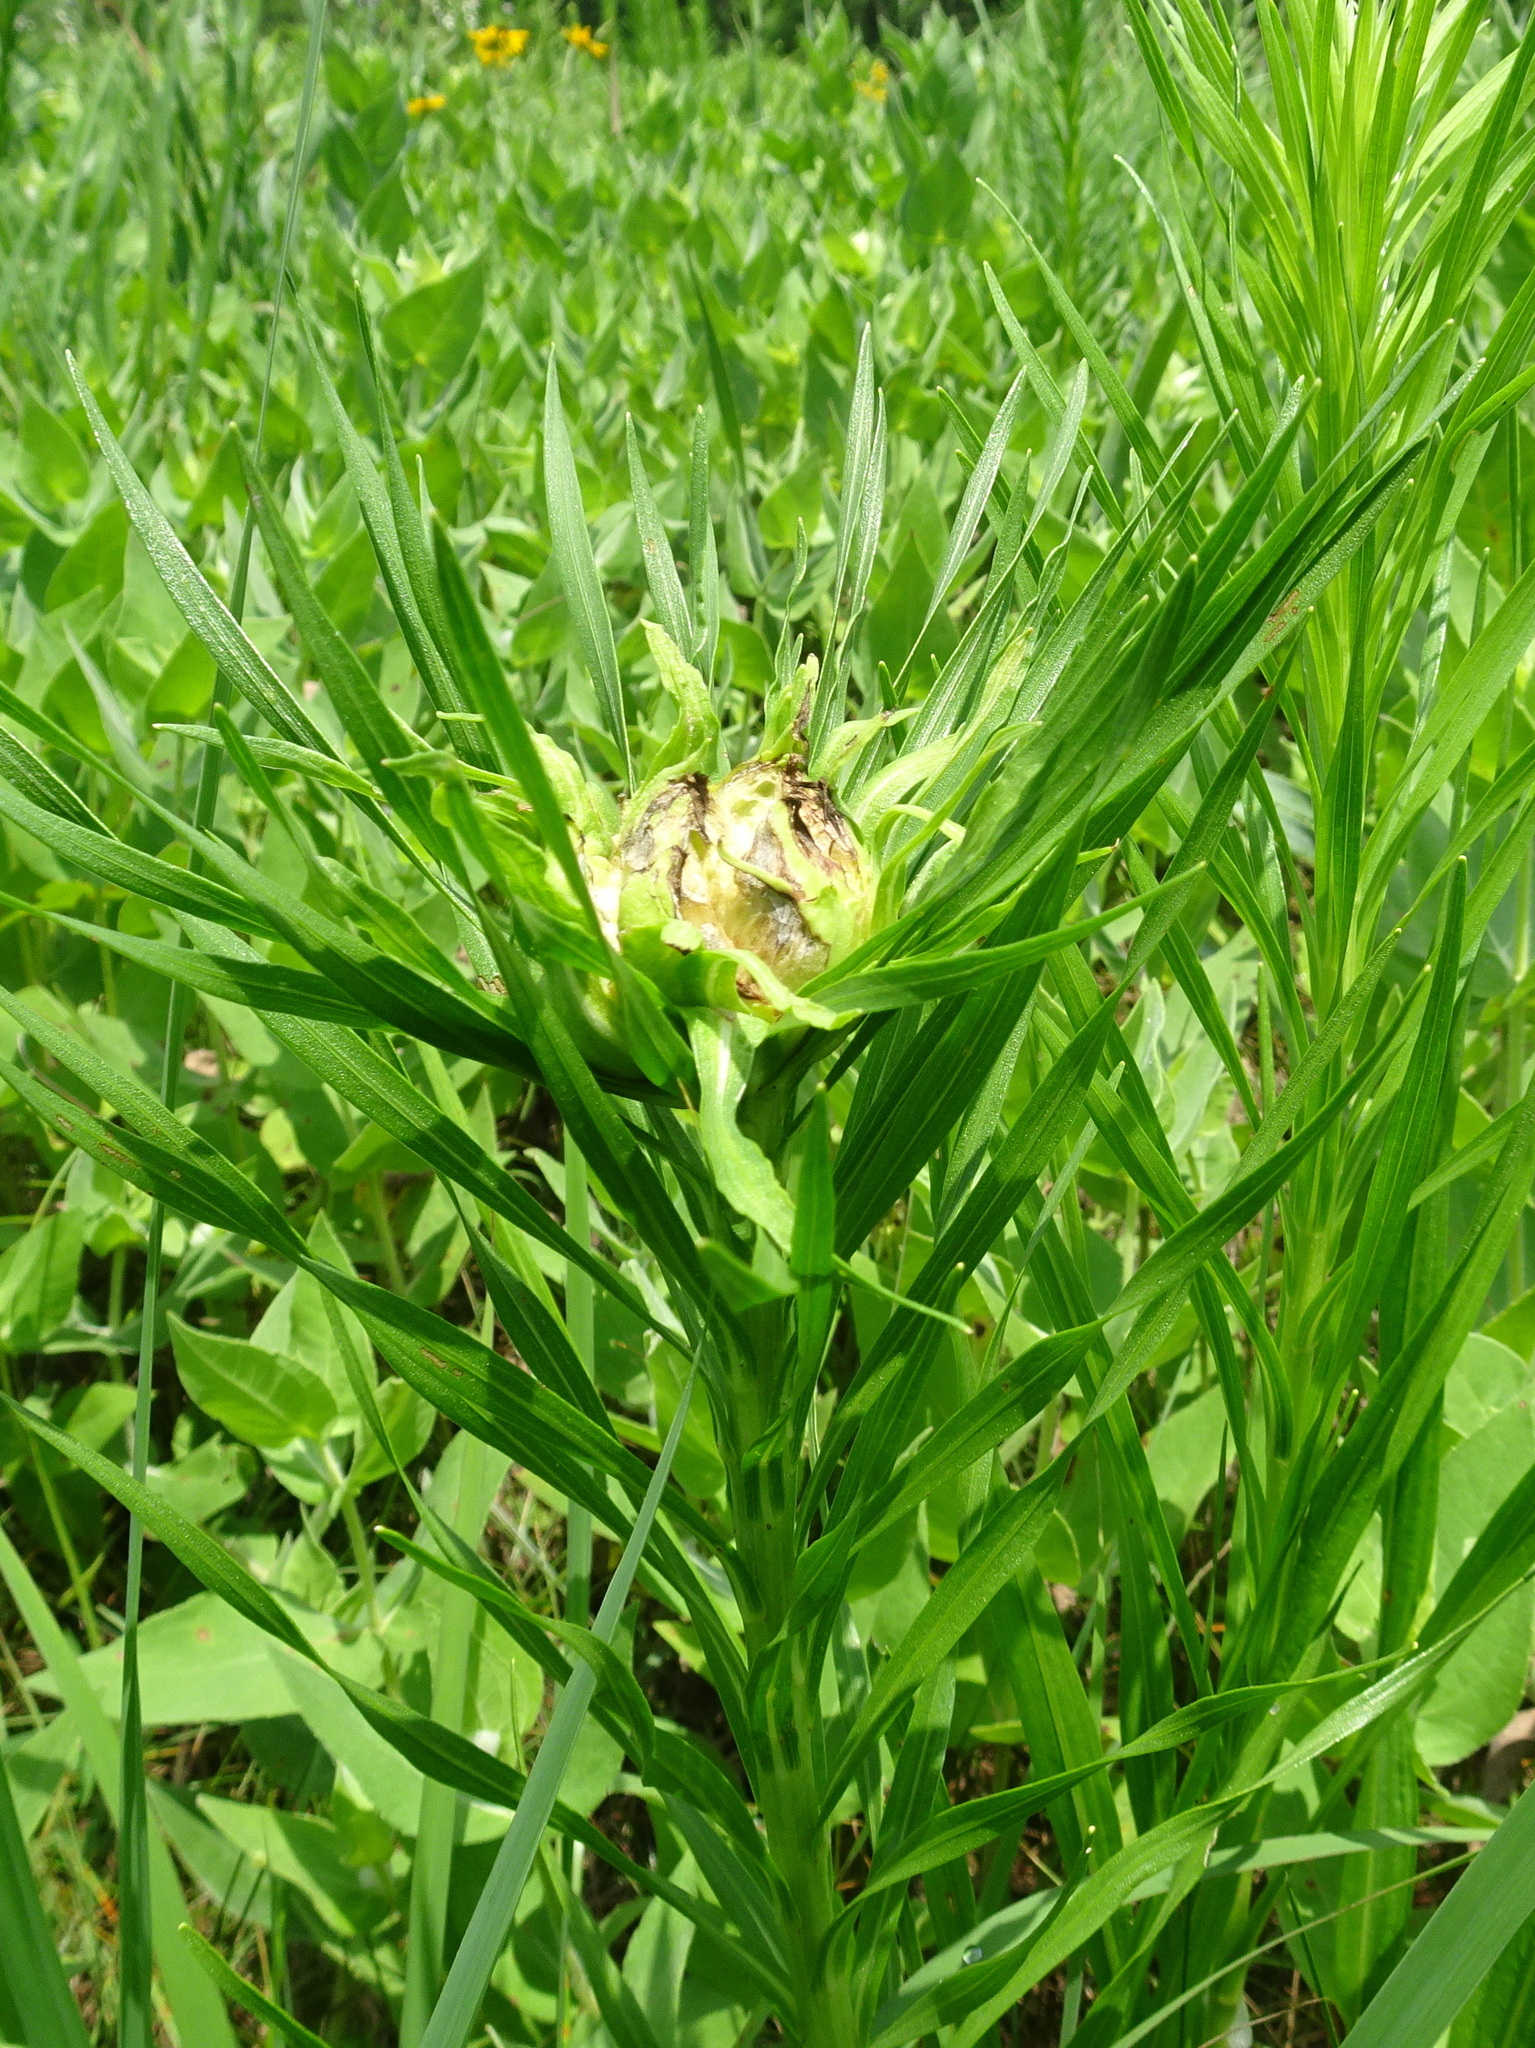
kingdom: Animalia
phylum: Arthropoda
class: Insecta
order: Diptera
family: Cecidomyiidae
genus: Asphondylia
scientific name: Asphondylia lacinariae
